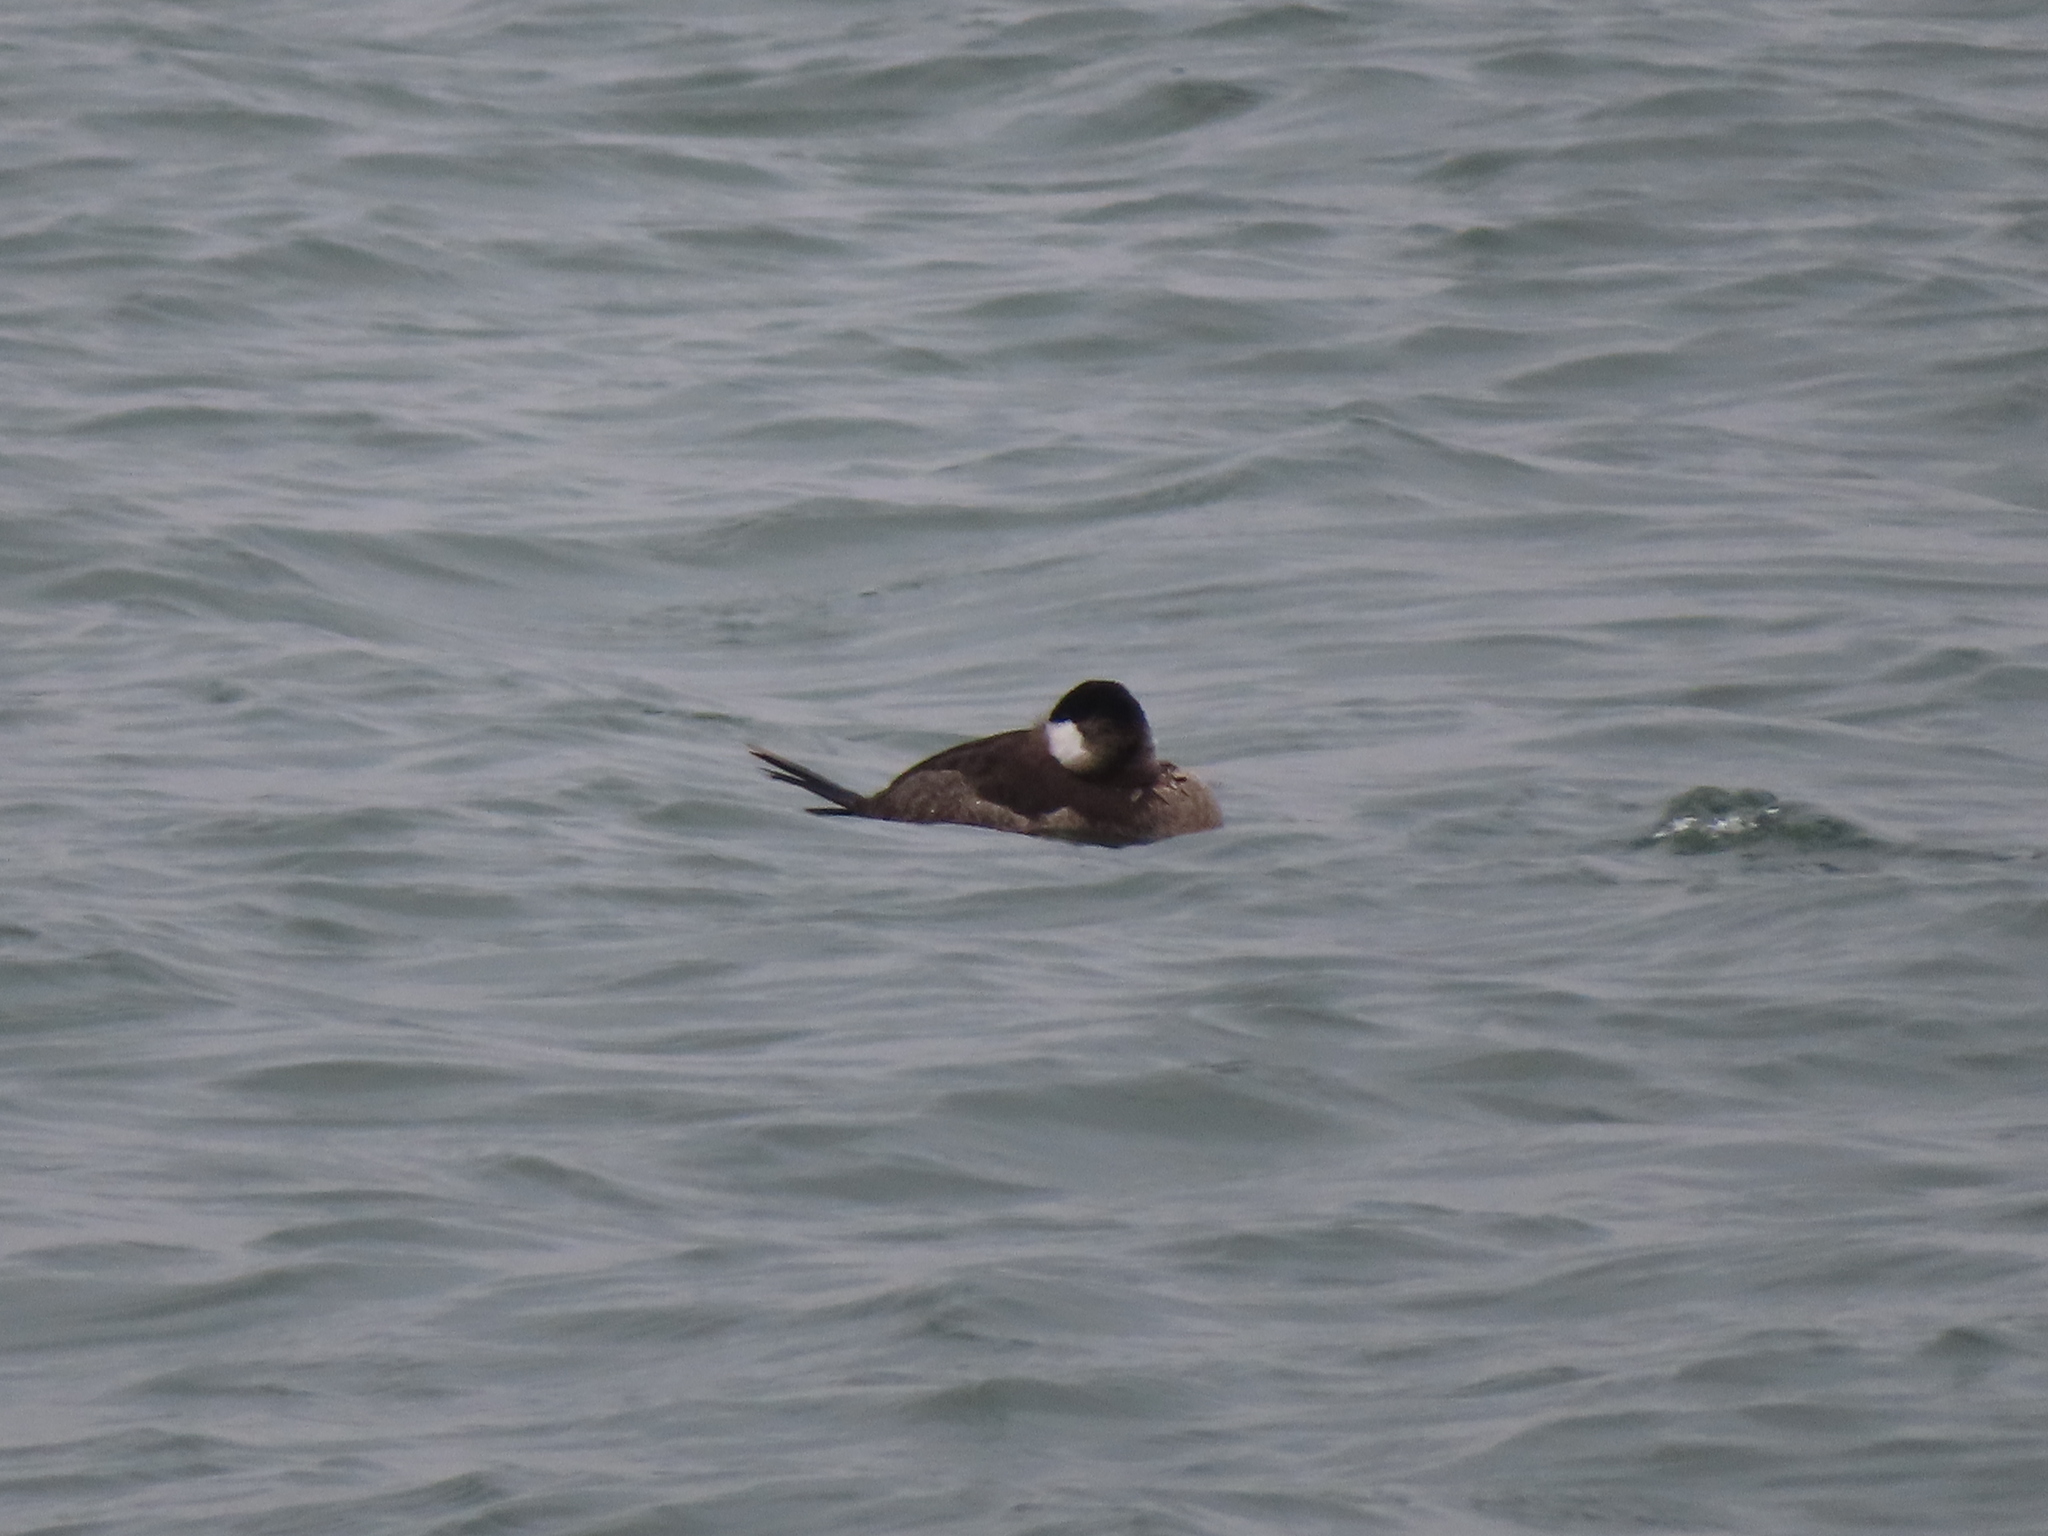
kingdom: Animalia
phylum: Chordata
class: Aves
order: Anseriformes
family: Anatidae
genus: Aythya
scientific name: Aythya marila
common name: Greater scaup
